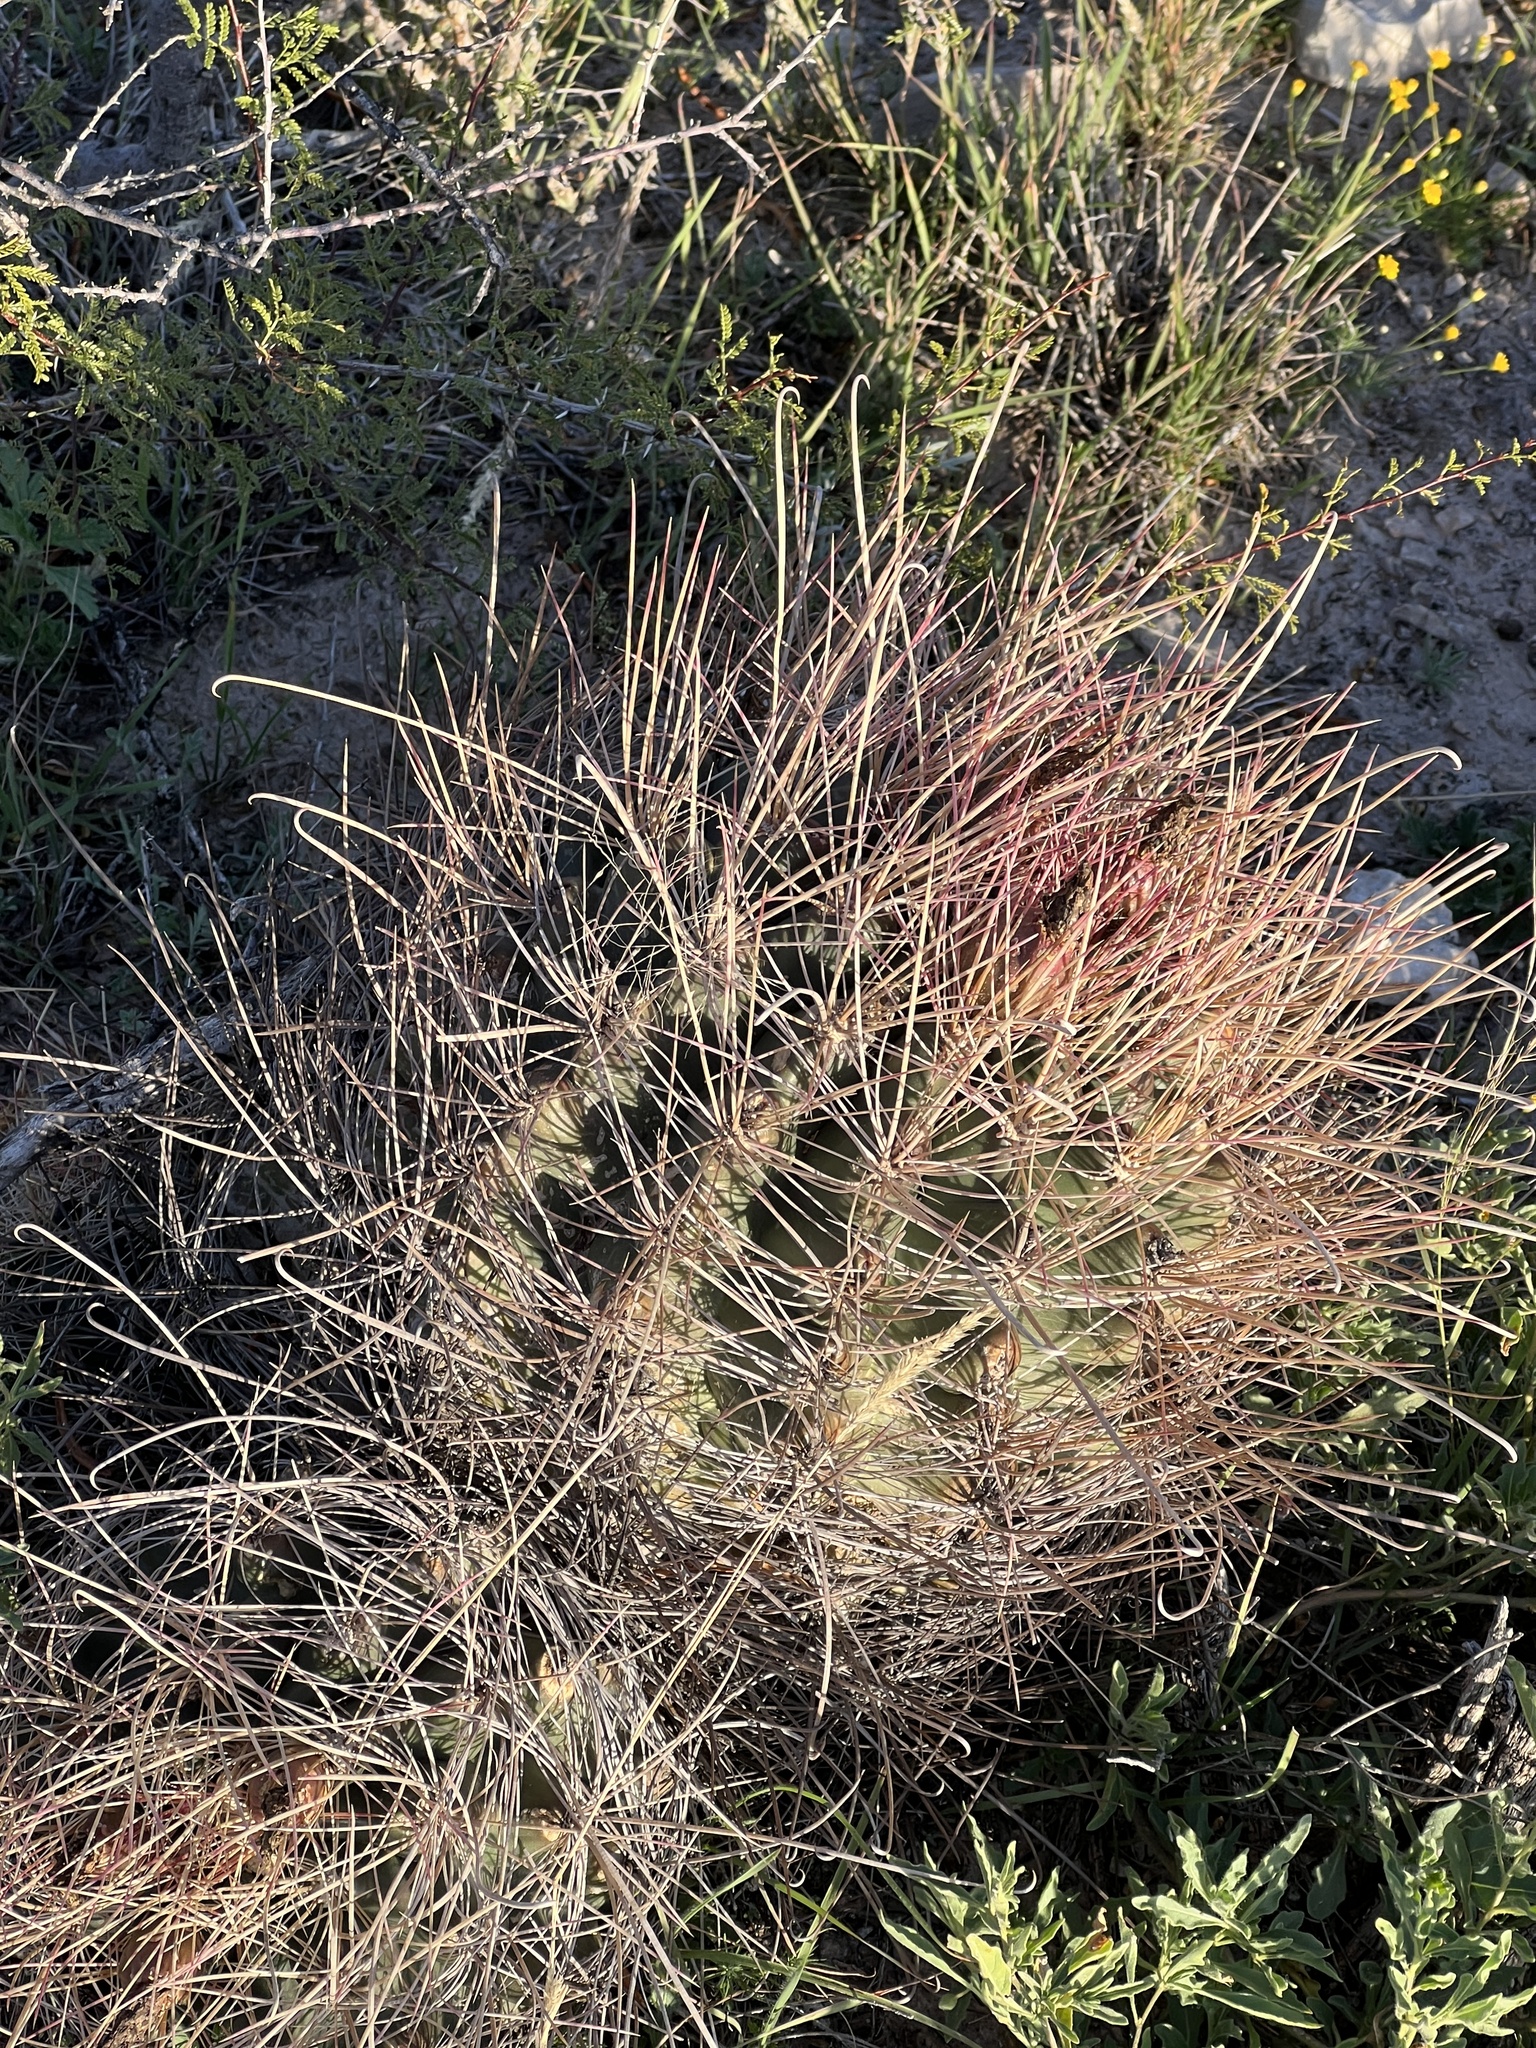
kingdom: Plantae
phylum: Tracheophyta
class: Magnoliopsida
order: Caryophyllales
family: Cactaceae
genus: Bisnaga
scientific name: Bisnaga hamatacantha
